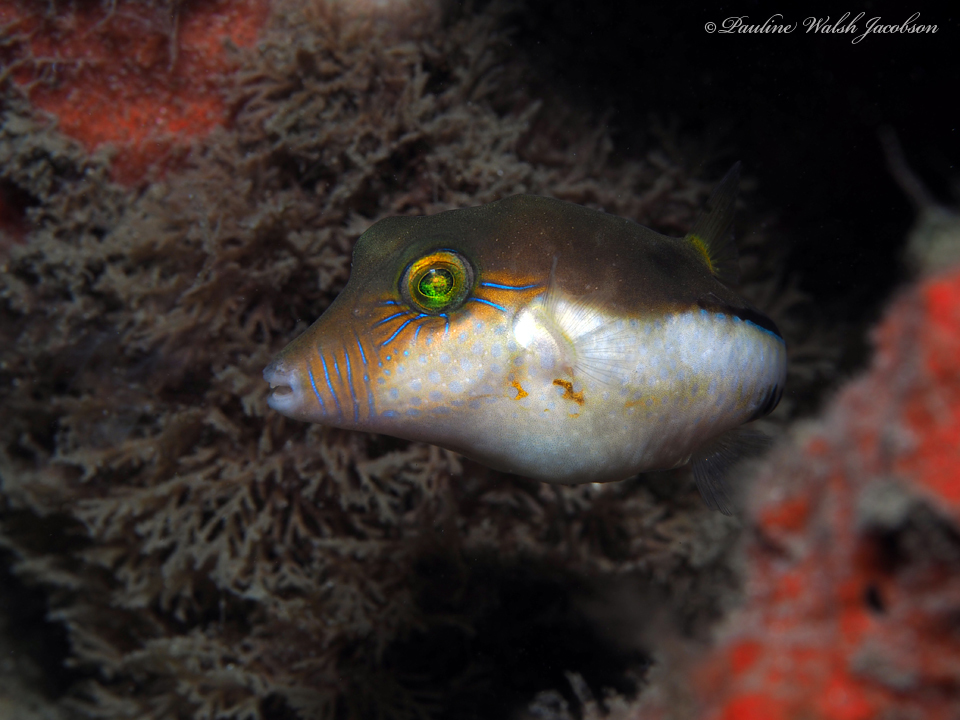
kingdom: Animalia
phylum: Chordata
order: Tetraodontiformes
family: Tetraodontidae
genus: Canthigaster
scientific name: Canthigaster rostrata
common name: Caribbean sharpnose-puffer
